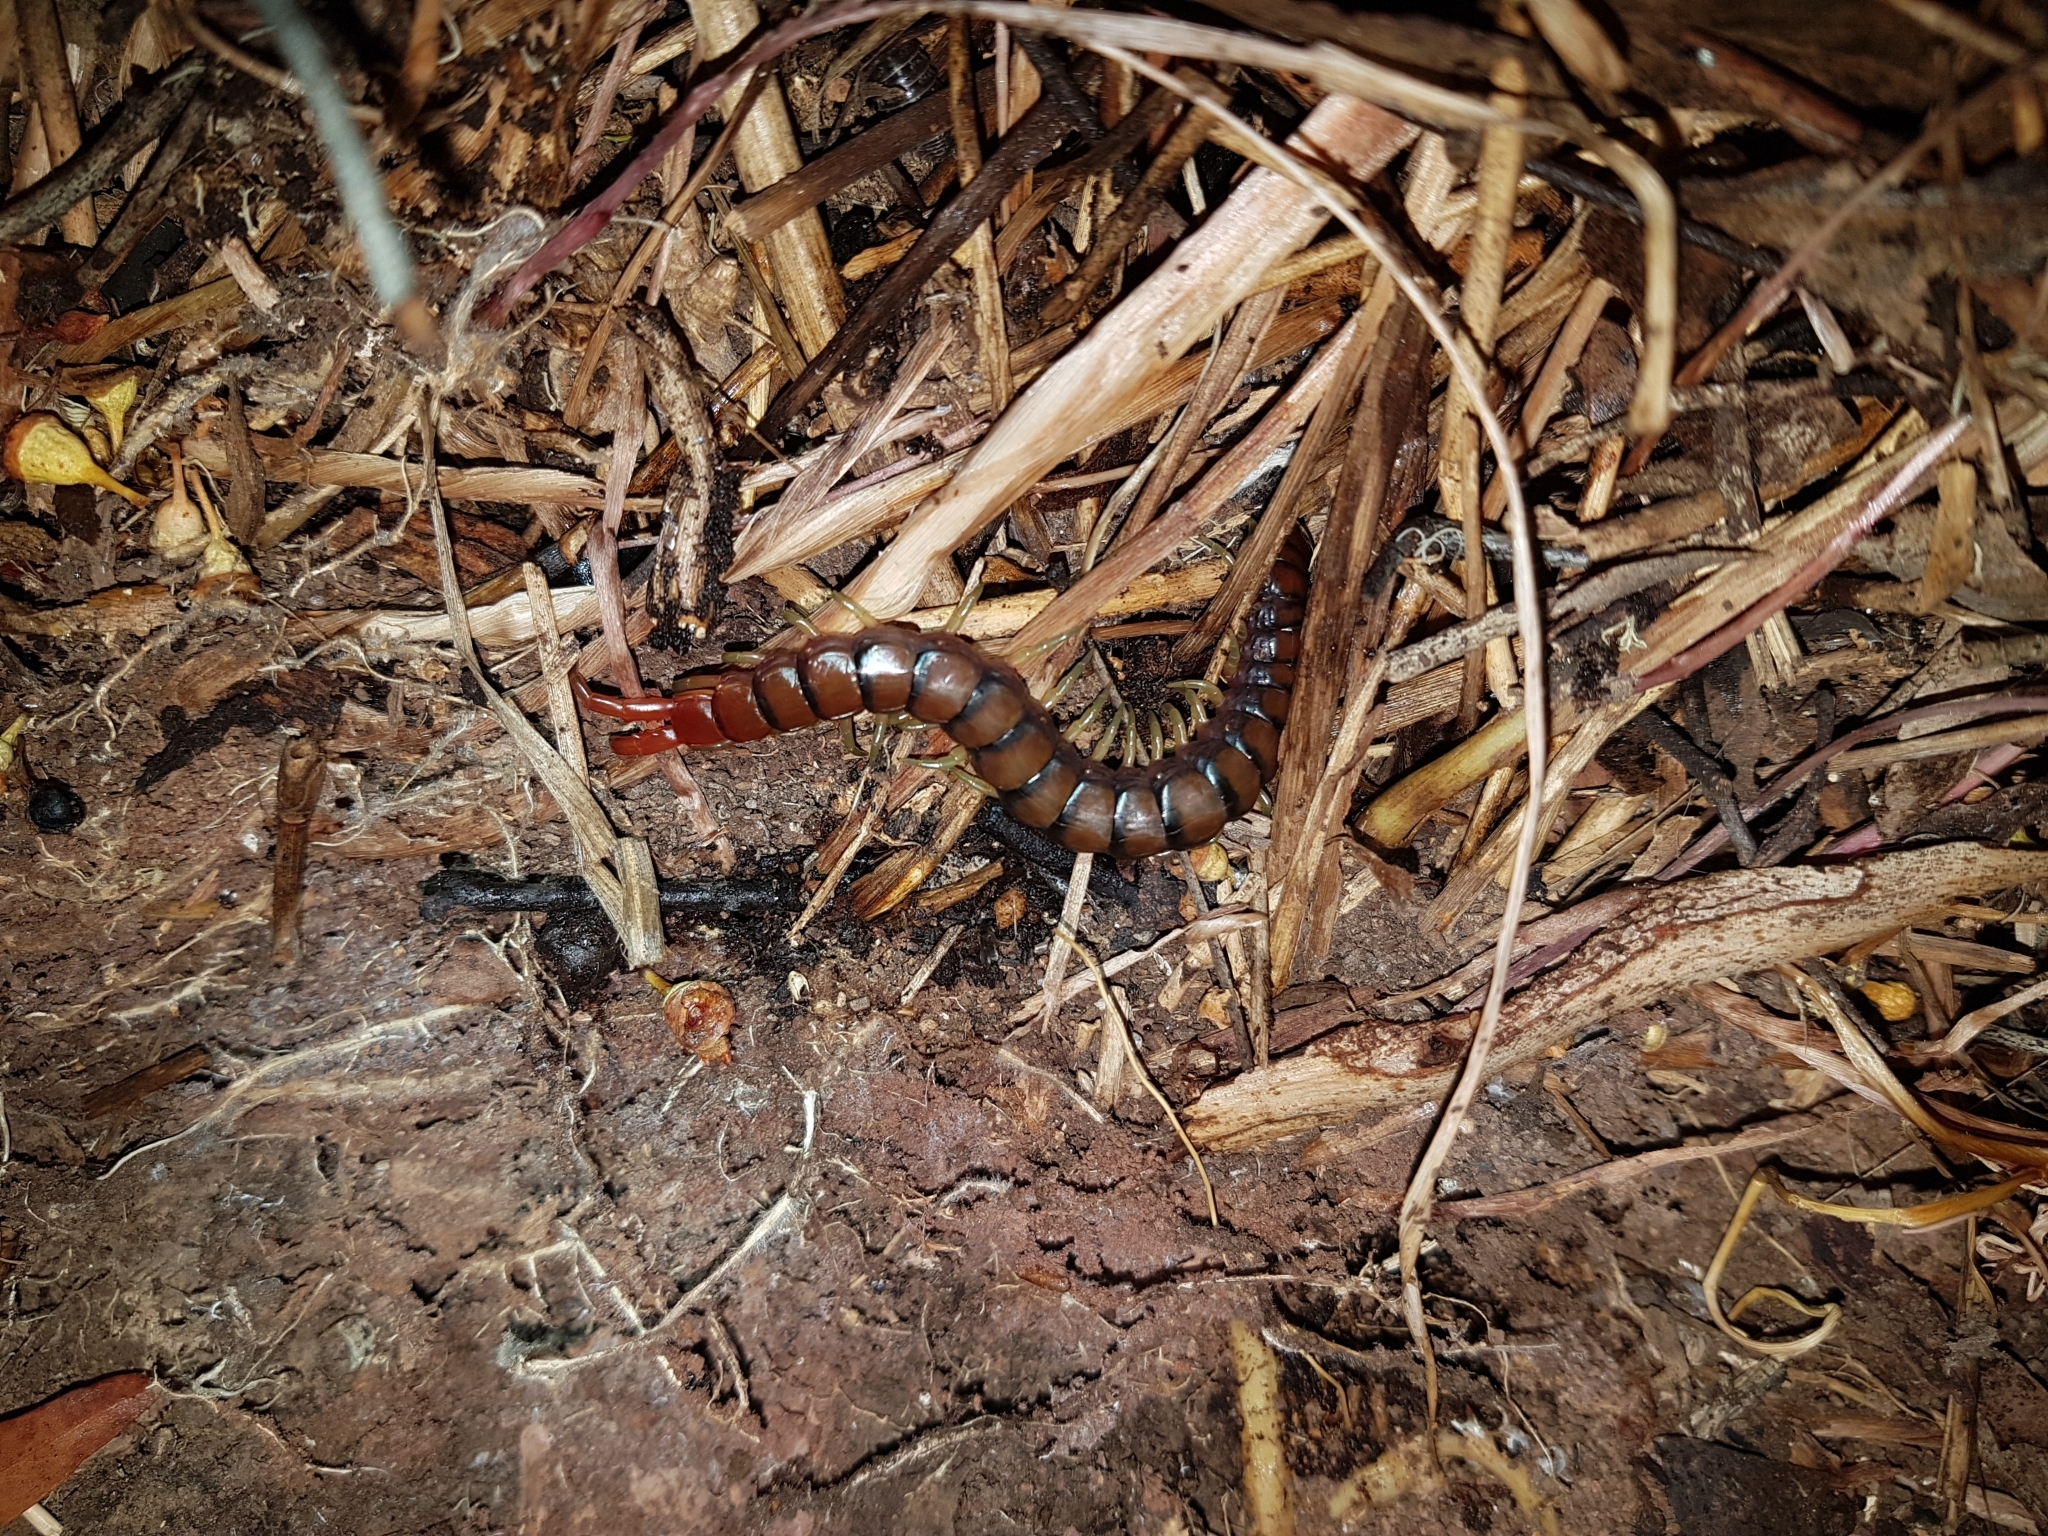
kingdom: Animalia
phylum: Arthropoda
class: Chilopoda
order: Scolopendromorpha
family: Scolopendridae
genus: Cormocephalus
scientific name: Cormocephalus aurantiipes
